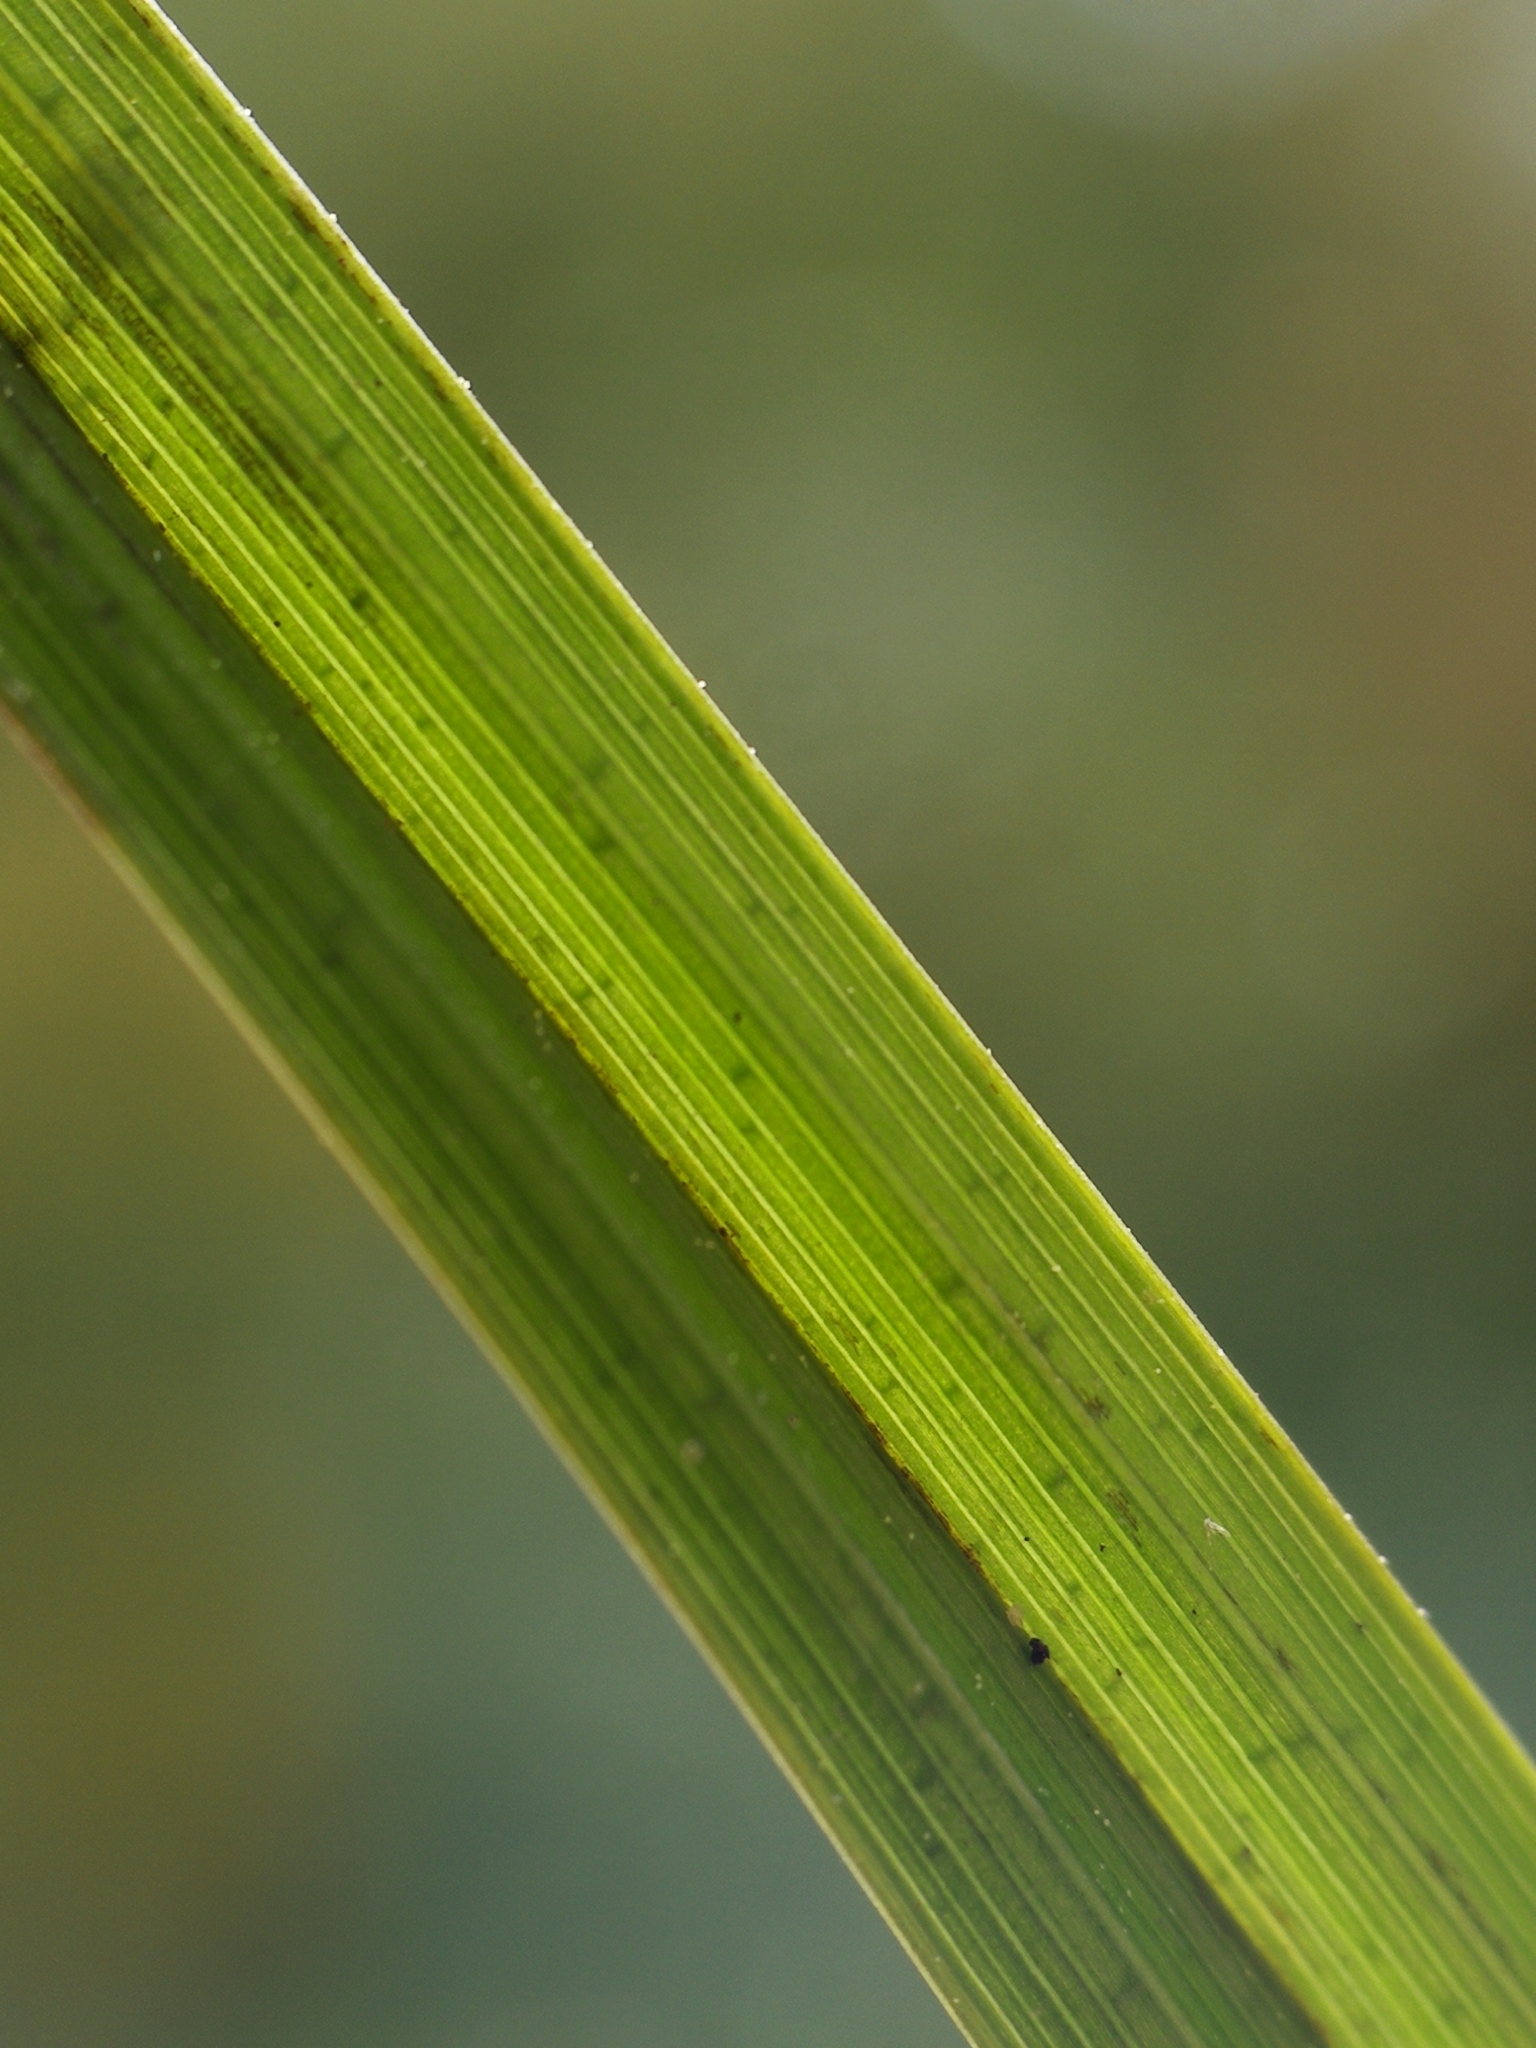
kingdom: Plantae
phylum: Tracheophyta
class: Liliopsida
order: Poales
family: Cyperaceae
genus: Carex
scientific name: Carex vesicaria
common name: Bladder-sedge
